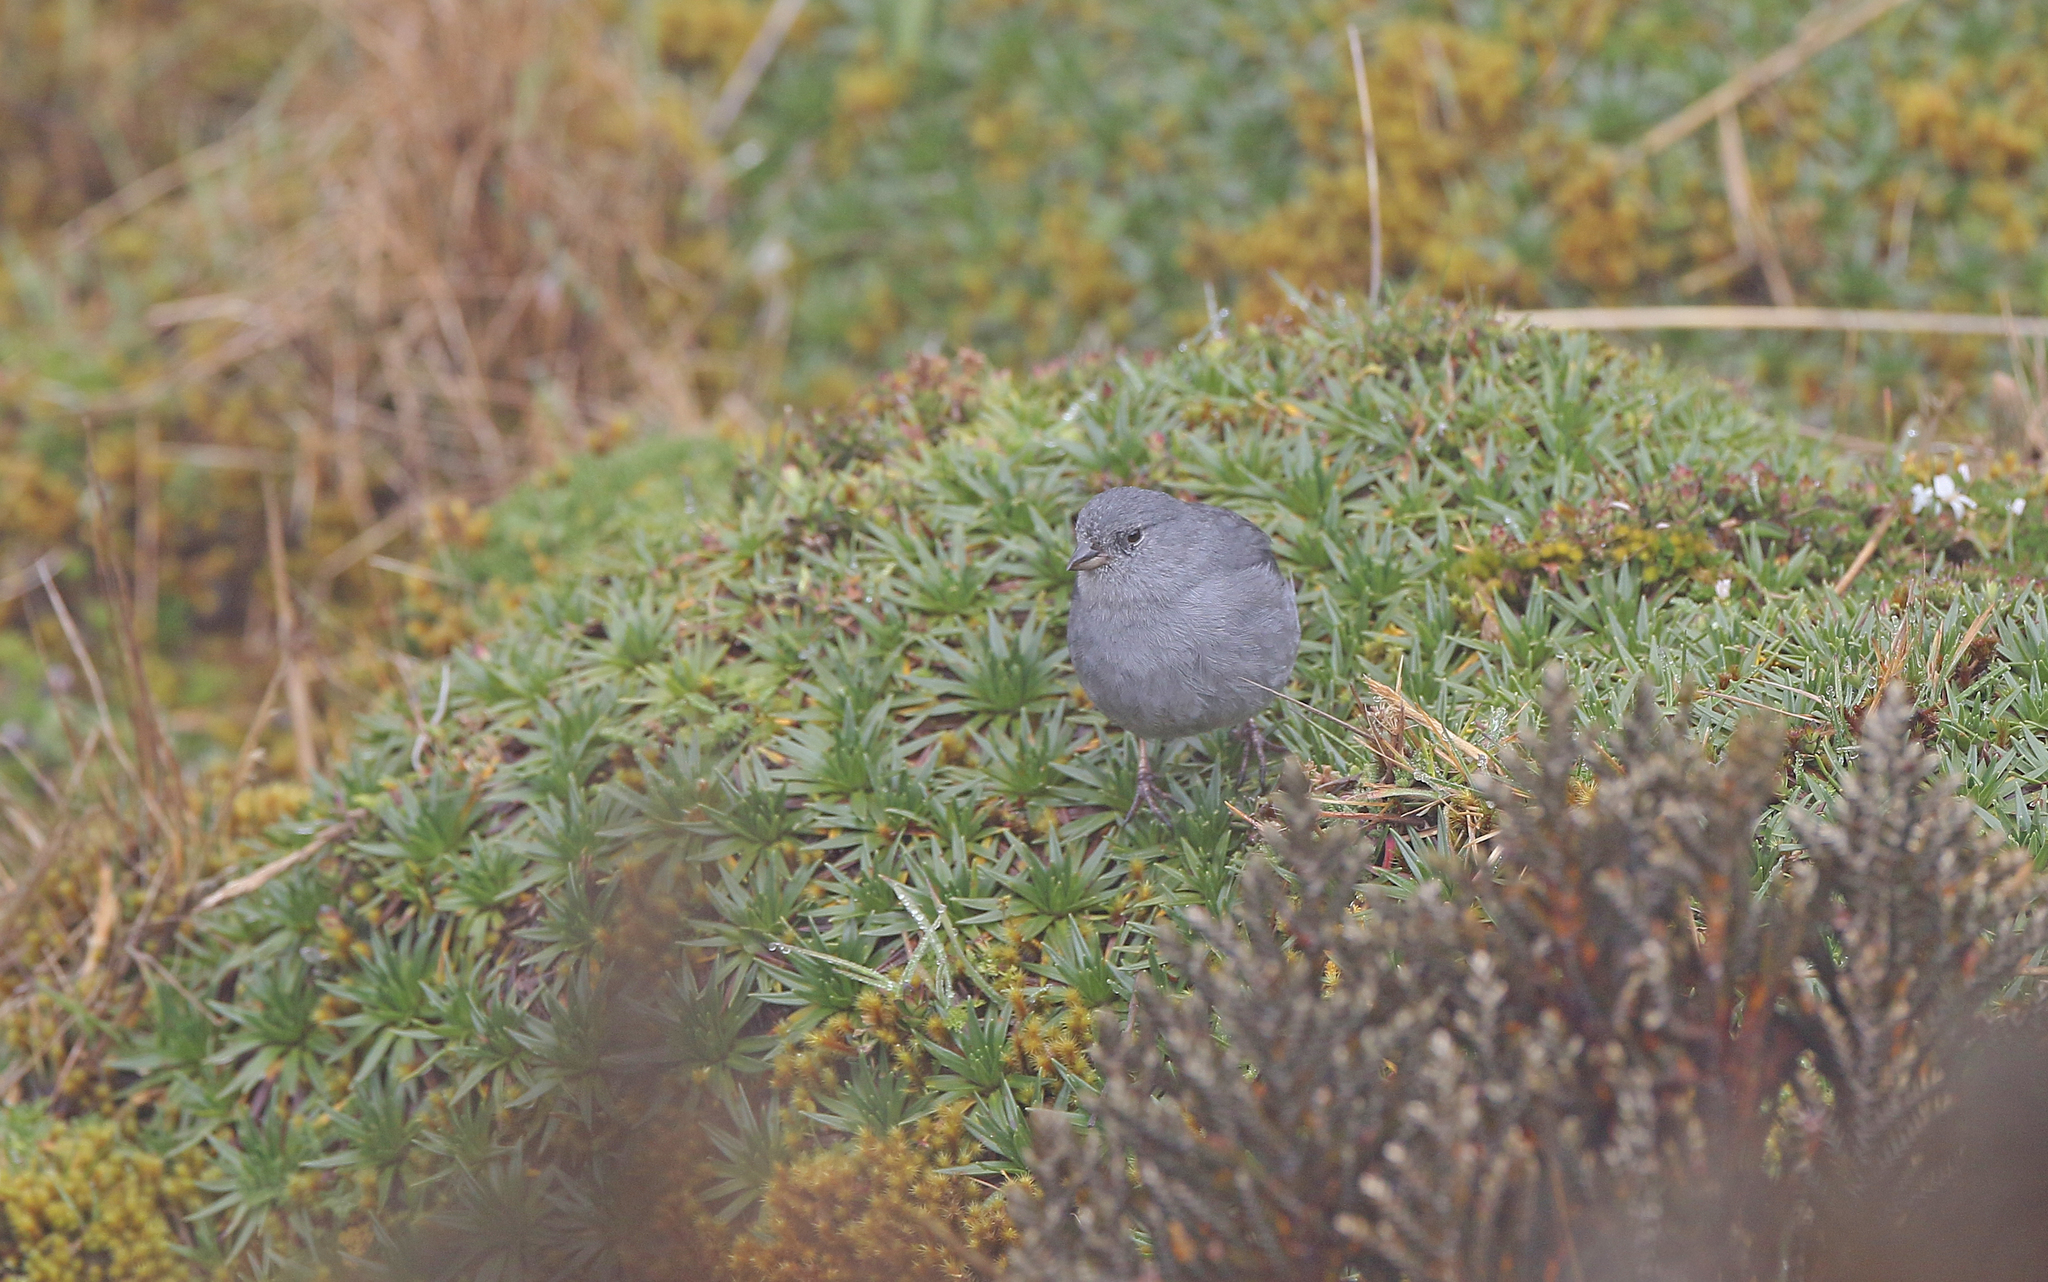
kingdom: Animalia
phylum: Chordata
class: Aves
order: Passeriformes
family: Thraupidae
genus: Geospizopsis
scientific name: Geospizopsis unicolor
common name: Plumbeous sierra-finch
